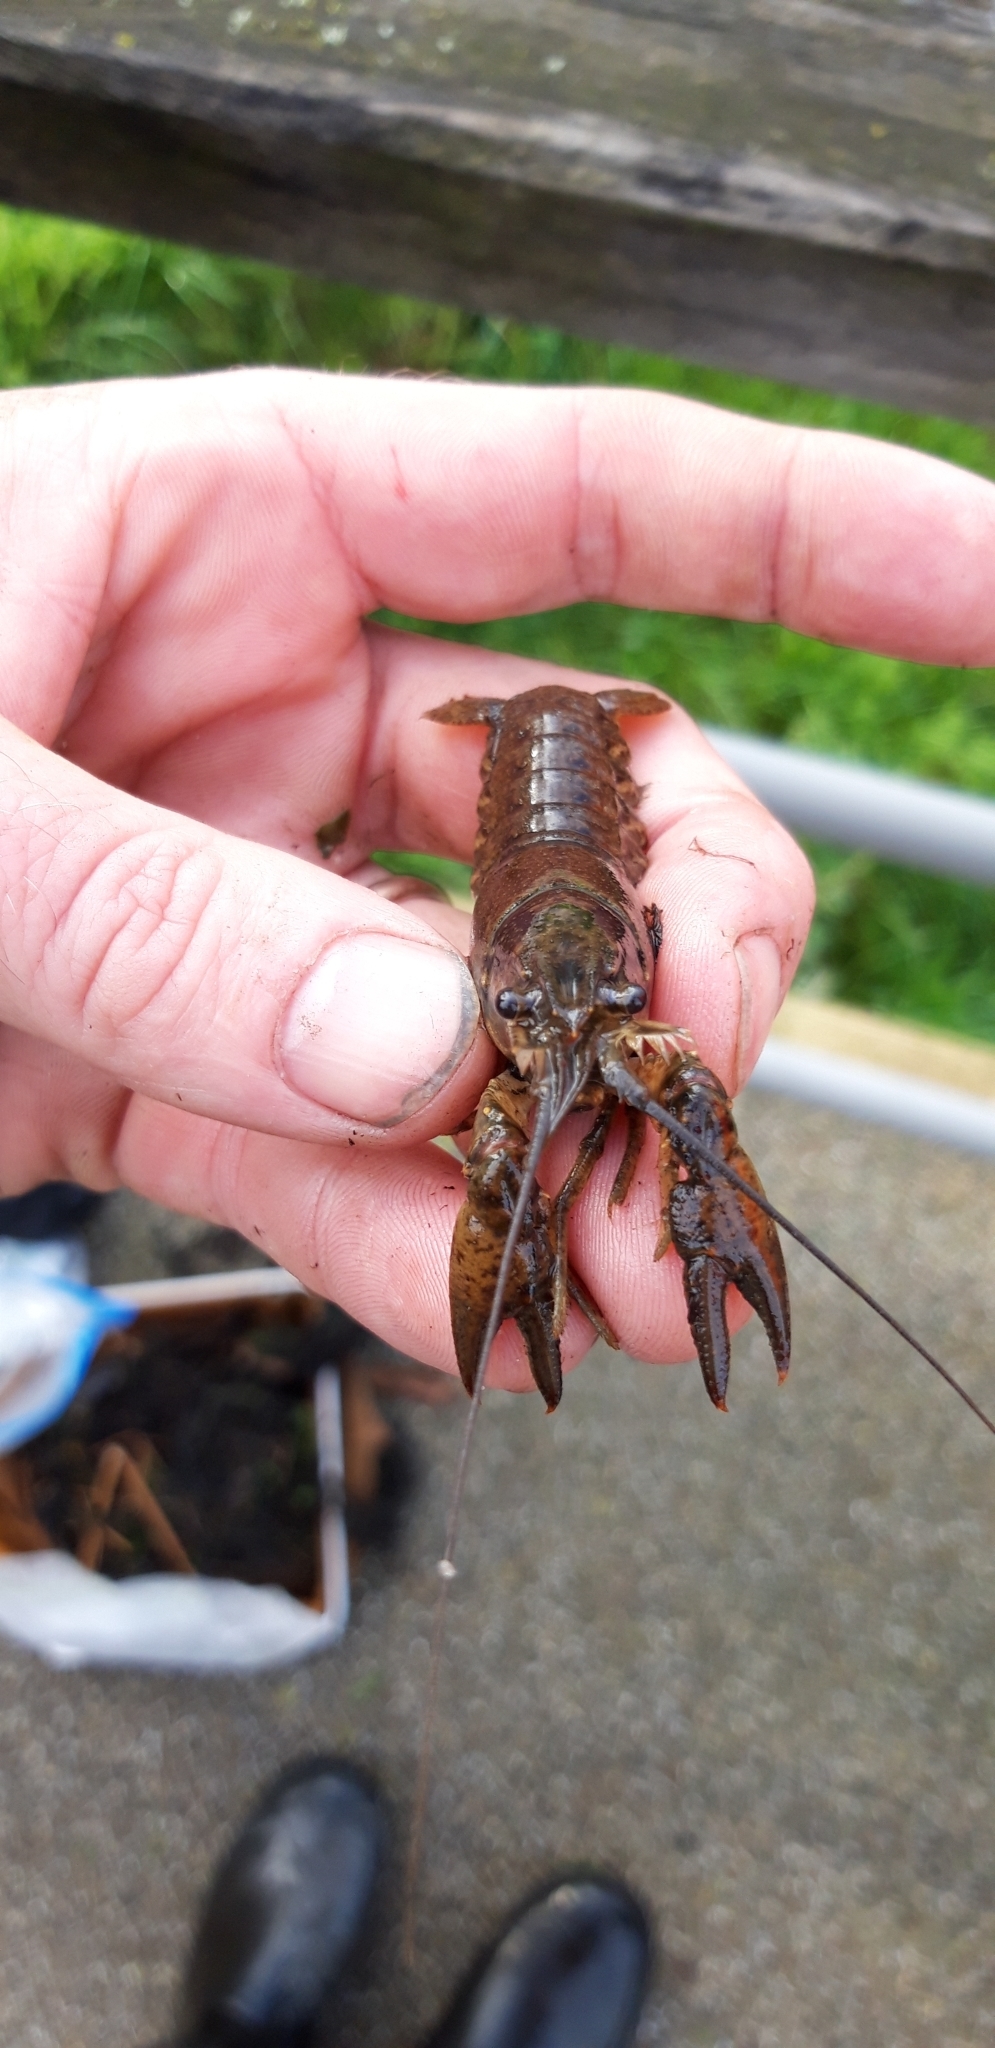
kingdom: Animalia
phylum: Arthropoda
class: Malacostraca
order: Decapoda
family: Cambaridae
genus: Faxonius
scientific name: Faxonius virilis
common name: Virile crayfish
